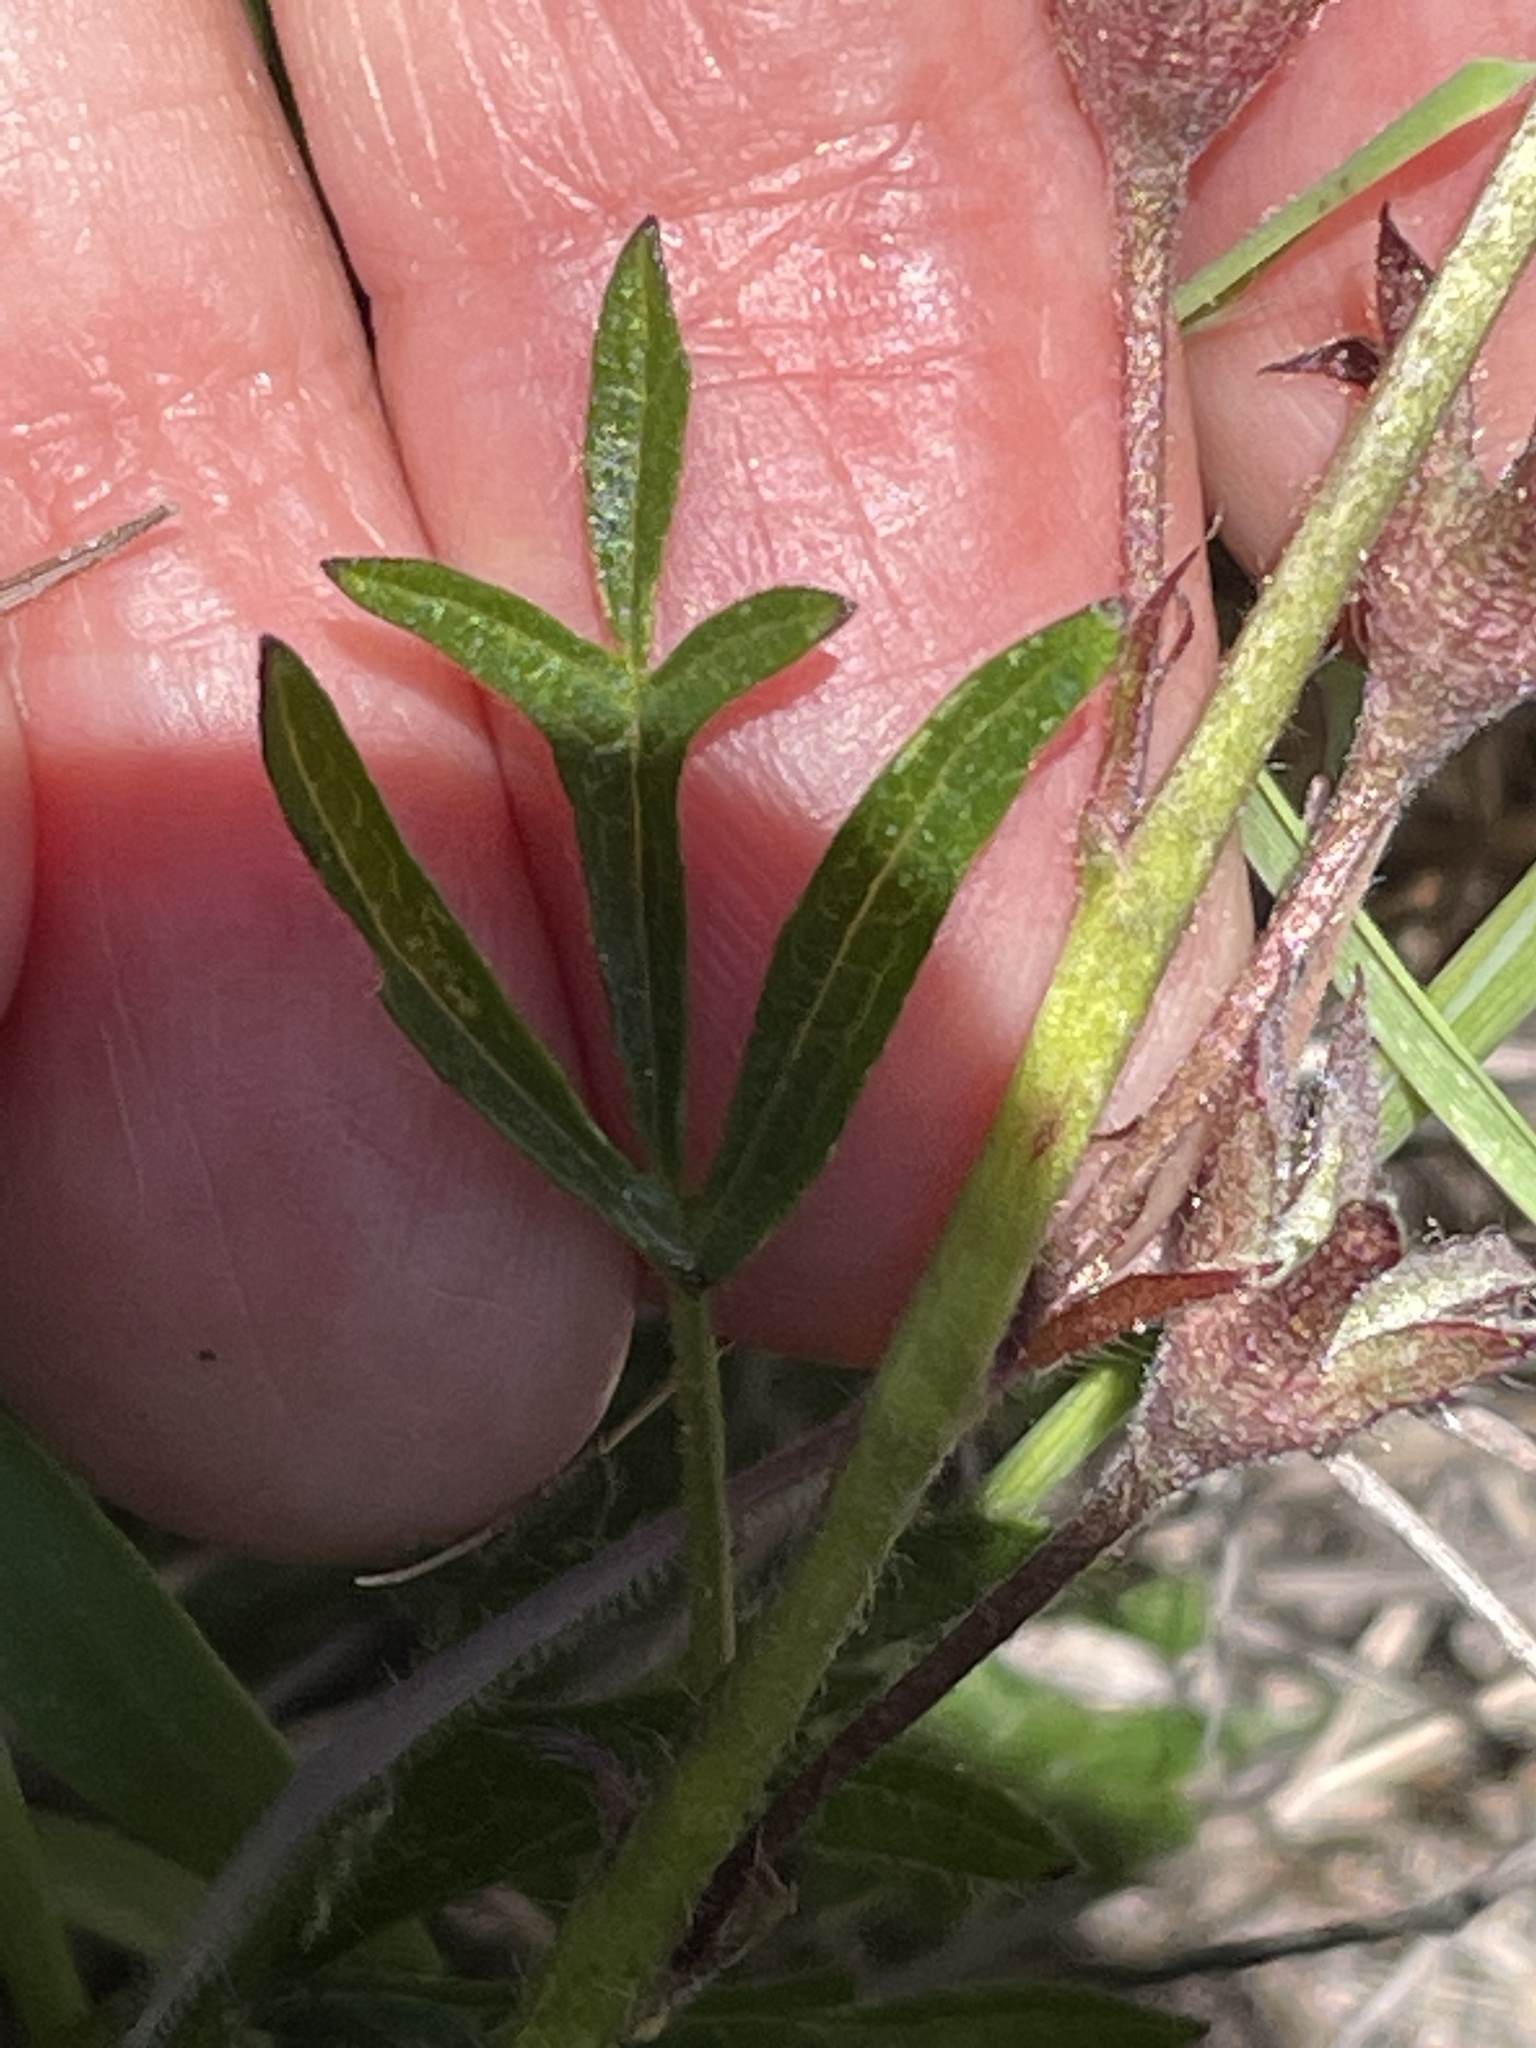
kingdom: Plantae
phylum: Tracheophyta
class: Magnoliopsida
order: Malvales
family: Malvaceae
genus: Sidalcea
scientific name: Sidalcea malviflora
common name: Greek mallow
